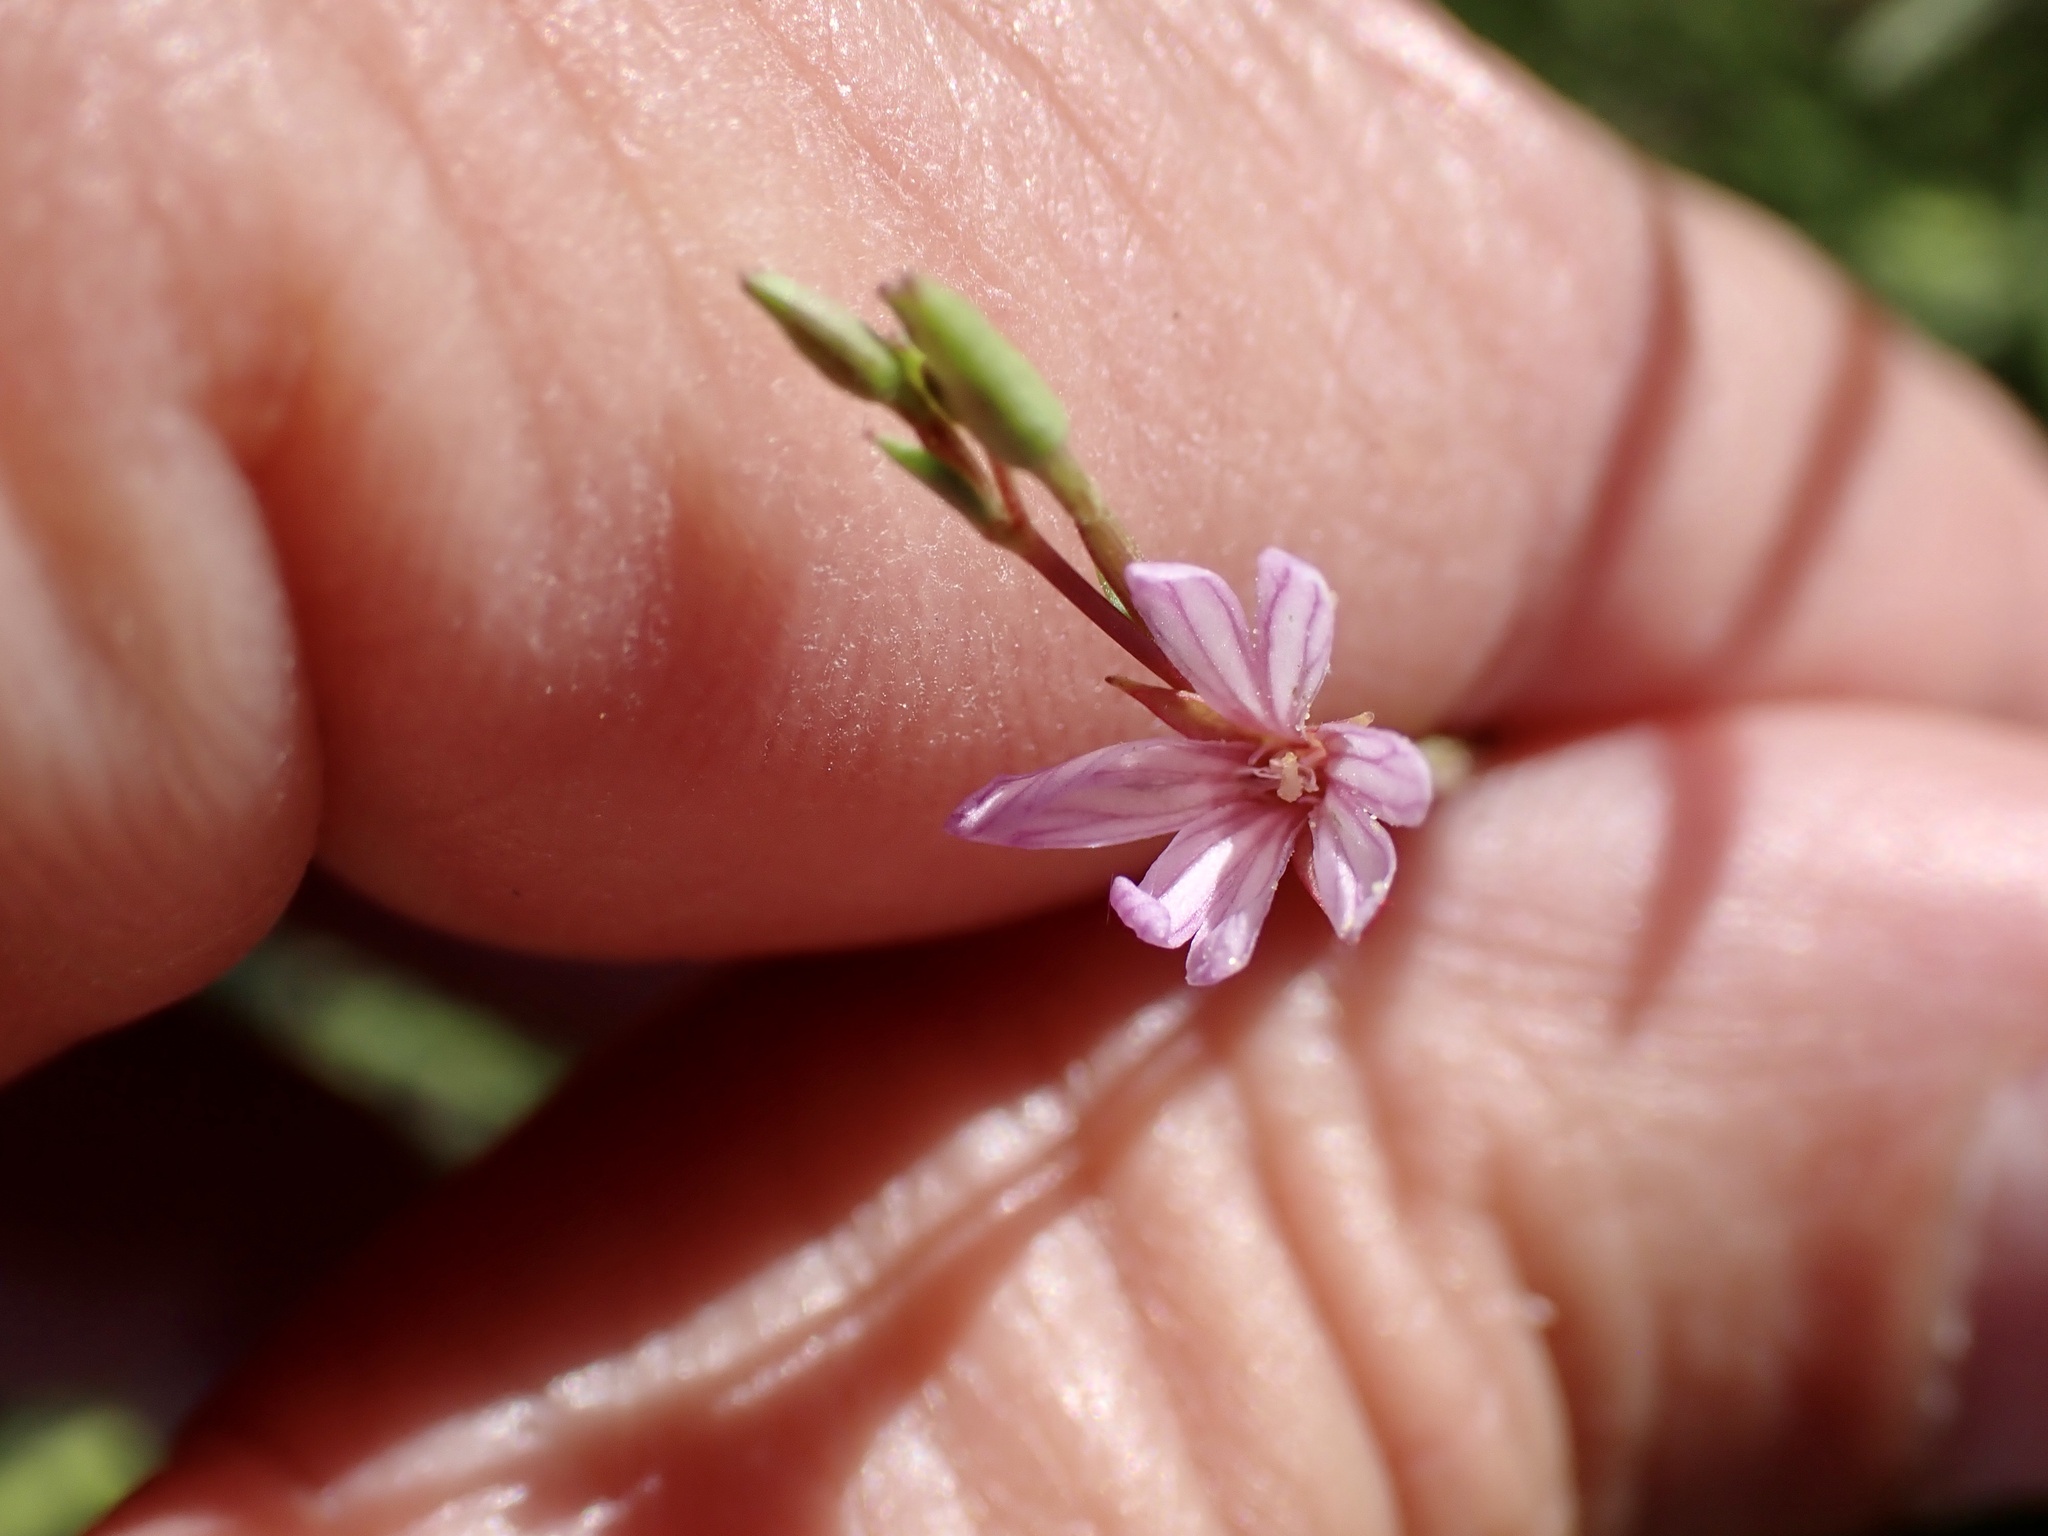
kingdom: Plantae
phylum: Tracheophyta
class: Magnoliopsida
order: Myrtales
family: Onagraceae
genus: Epilobium
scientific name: Epilobium brachycarpum
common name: Annual willowherb
